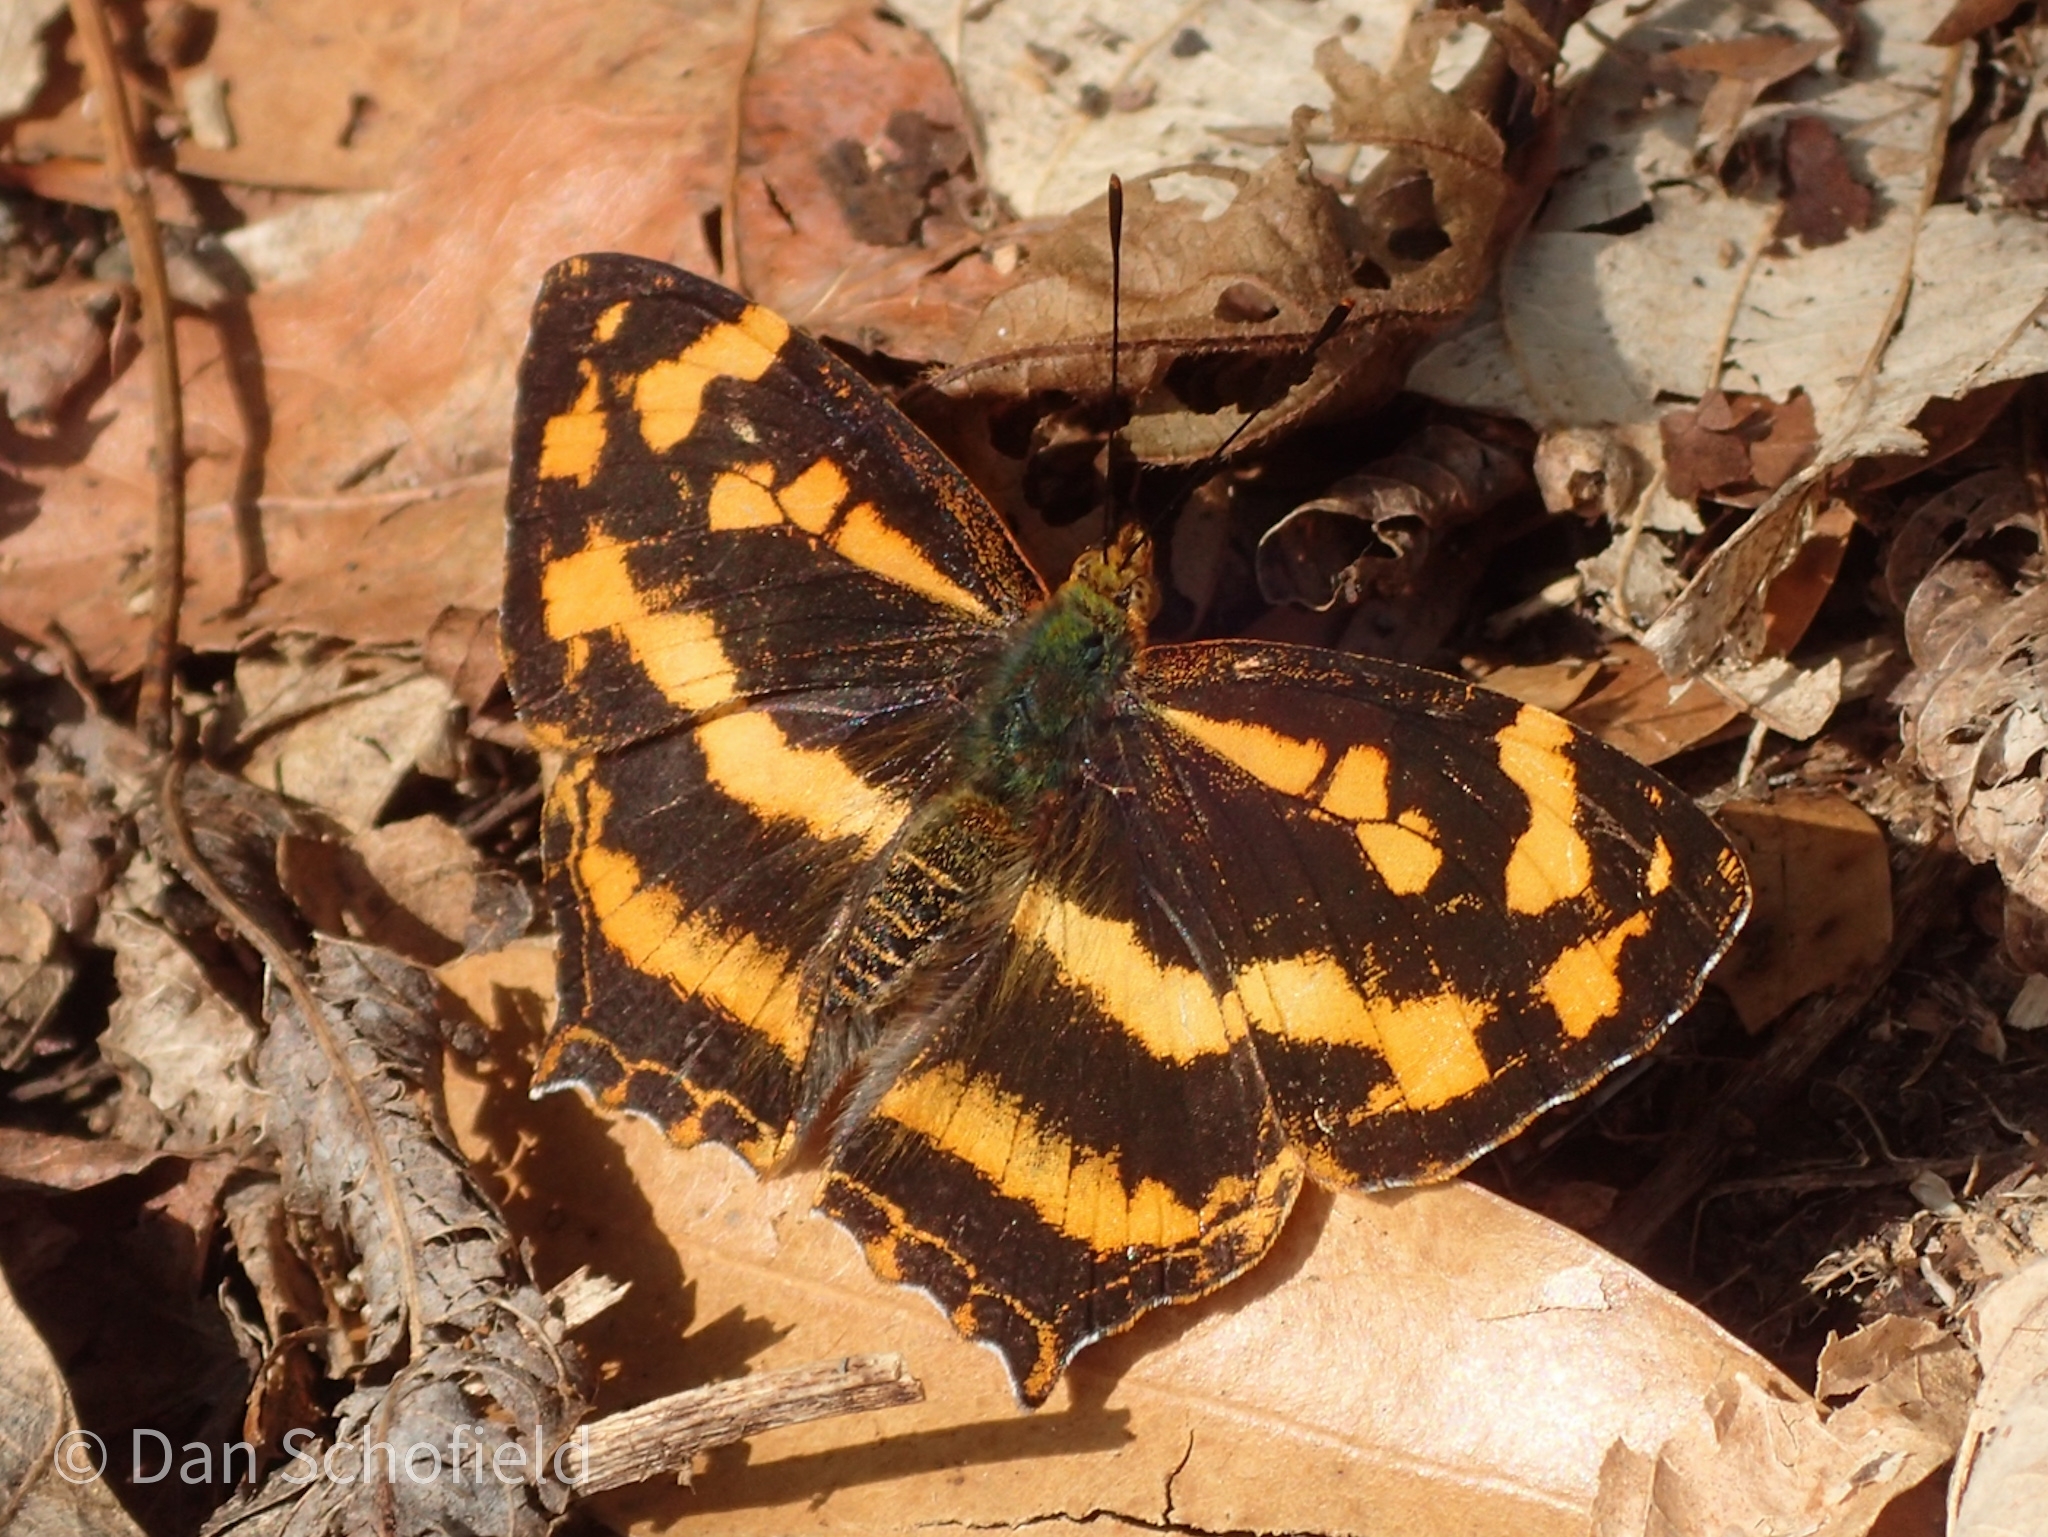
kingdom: Animalia
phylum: Arthropoda
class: Insecta
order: Lepidoptera
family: Nymphalidae
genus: Symbrenthia
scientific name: Symbrenthia hypselis
